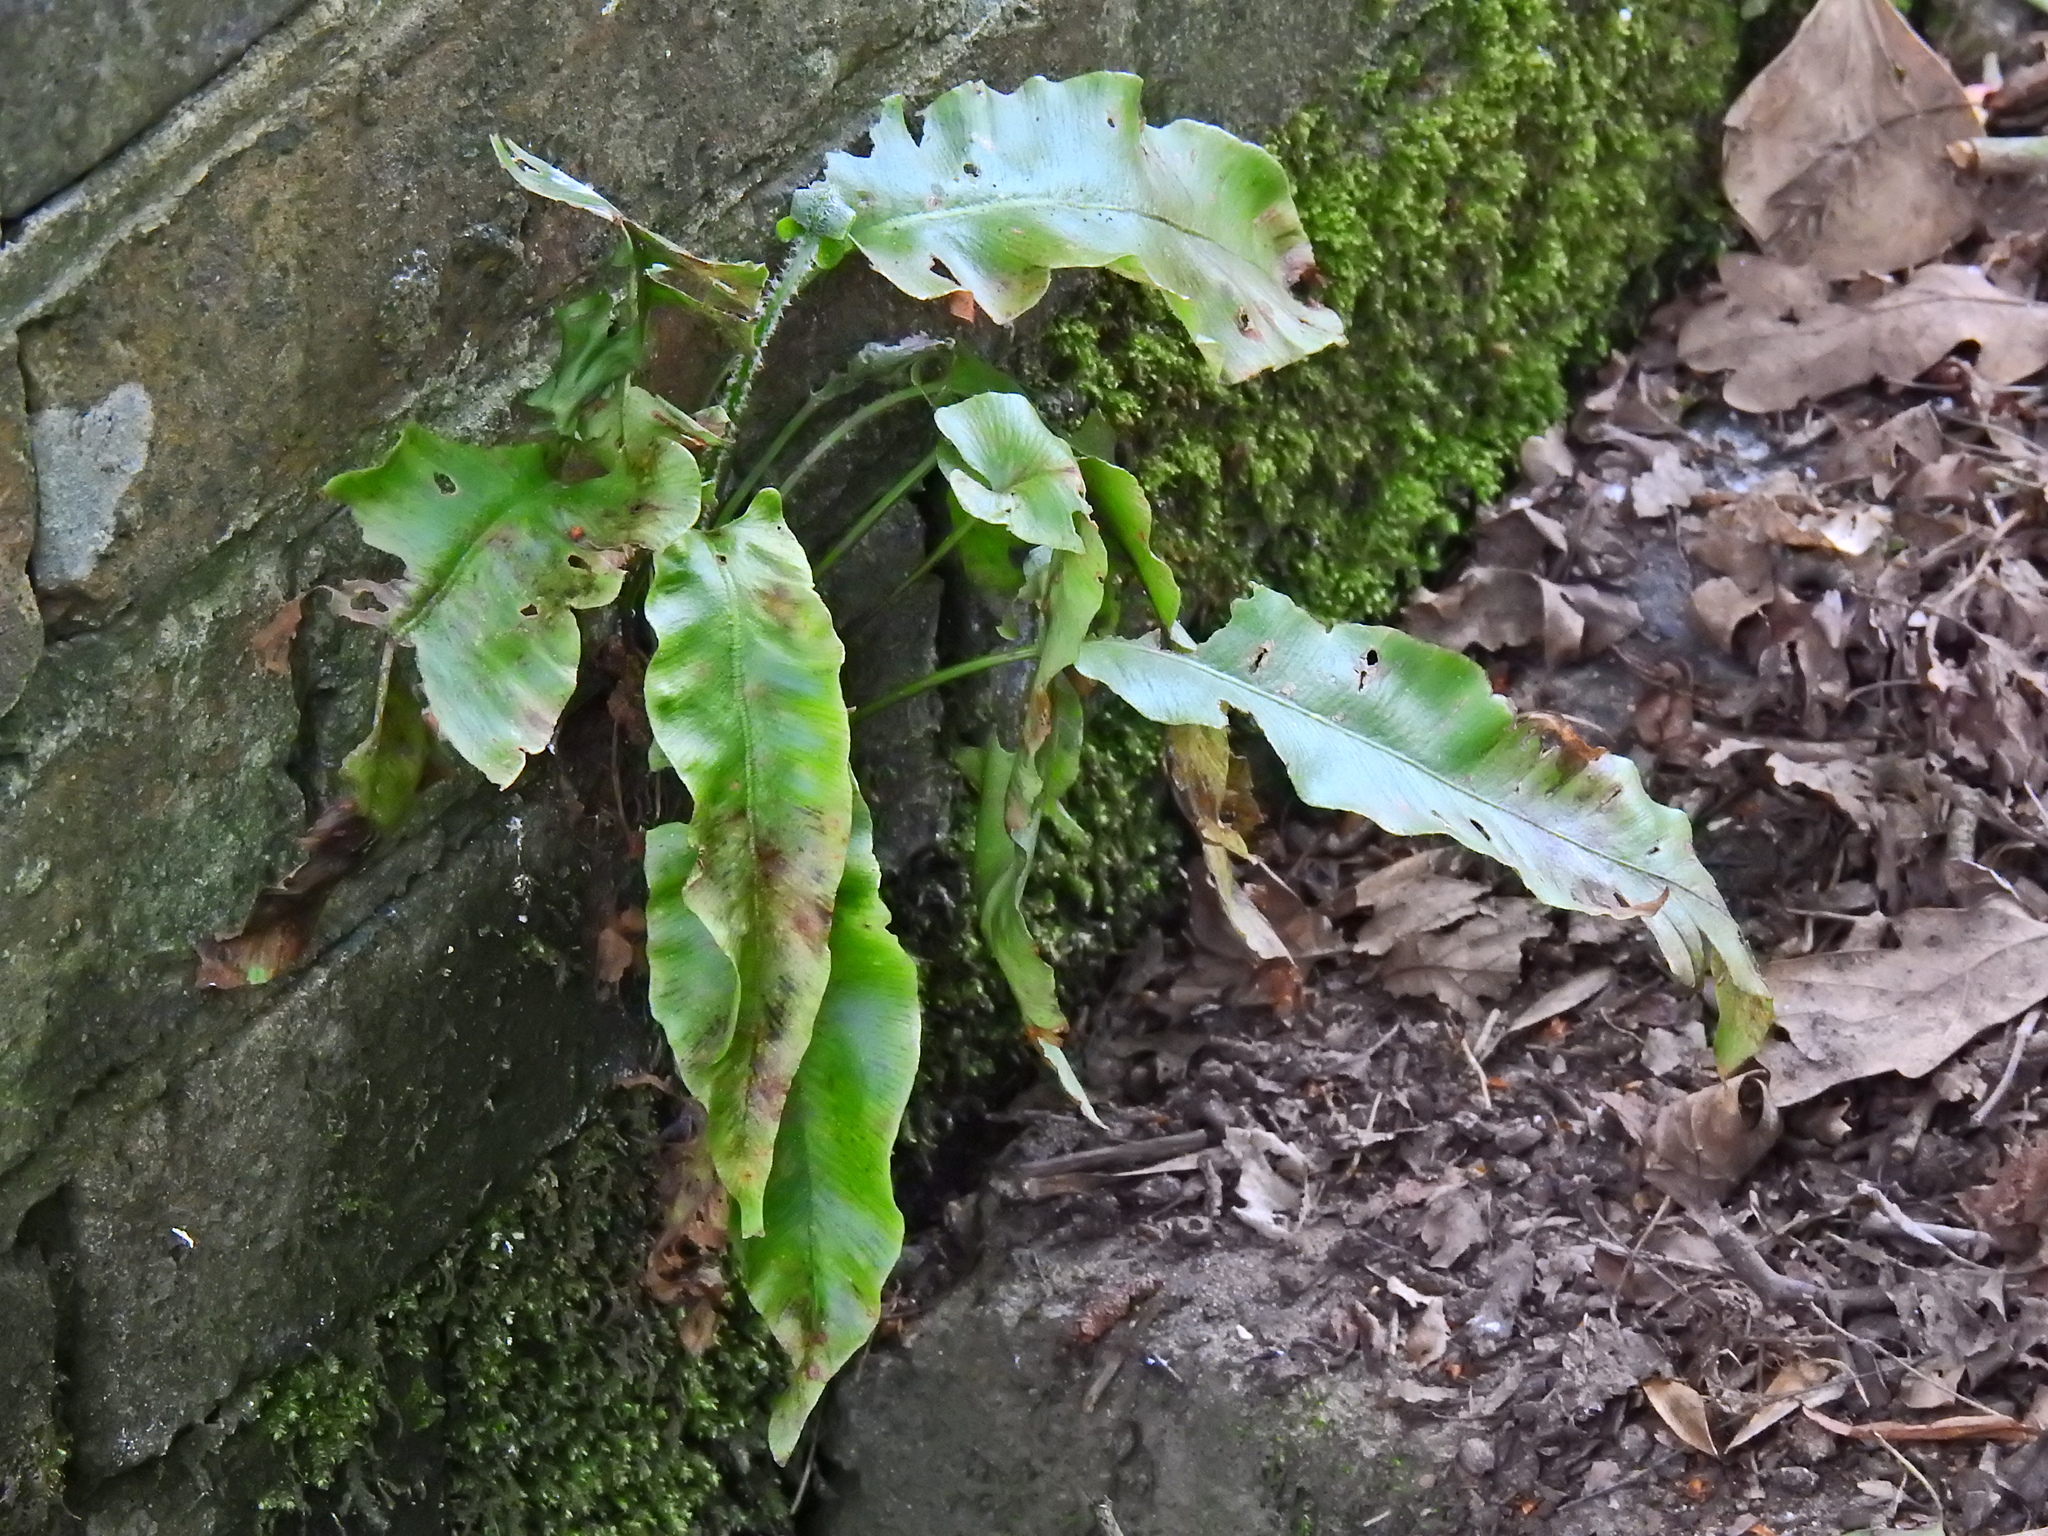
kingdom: Plantae
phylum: Tracheophyta
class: Polypodiopsida
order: Polypodiales
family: Aspleniaceae
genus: Asplenium
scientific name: Asplenium scolopendrium
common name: Hart's-tongue fern
